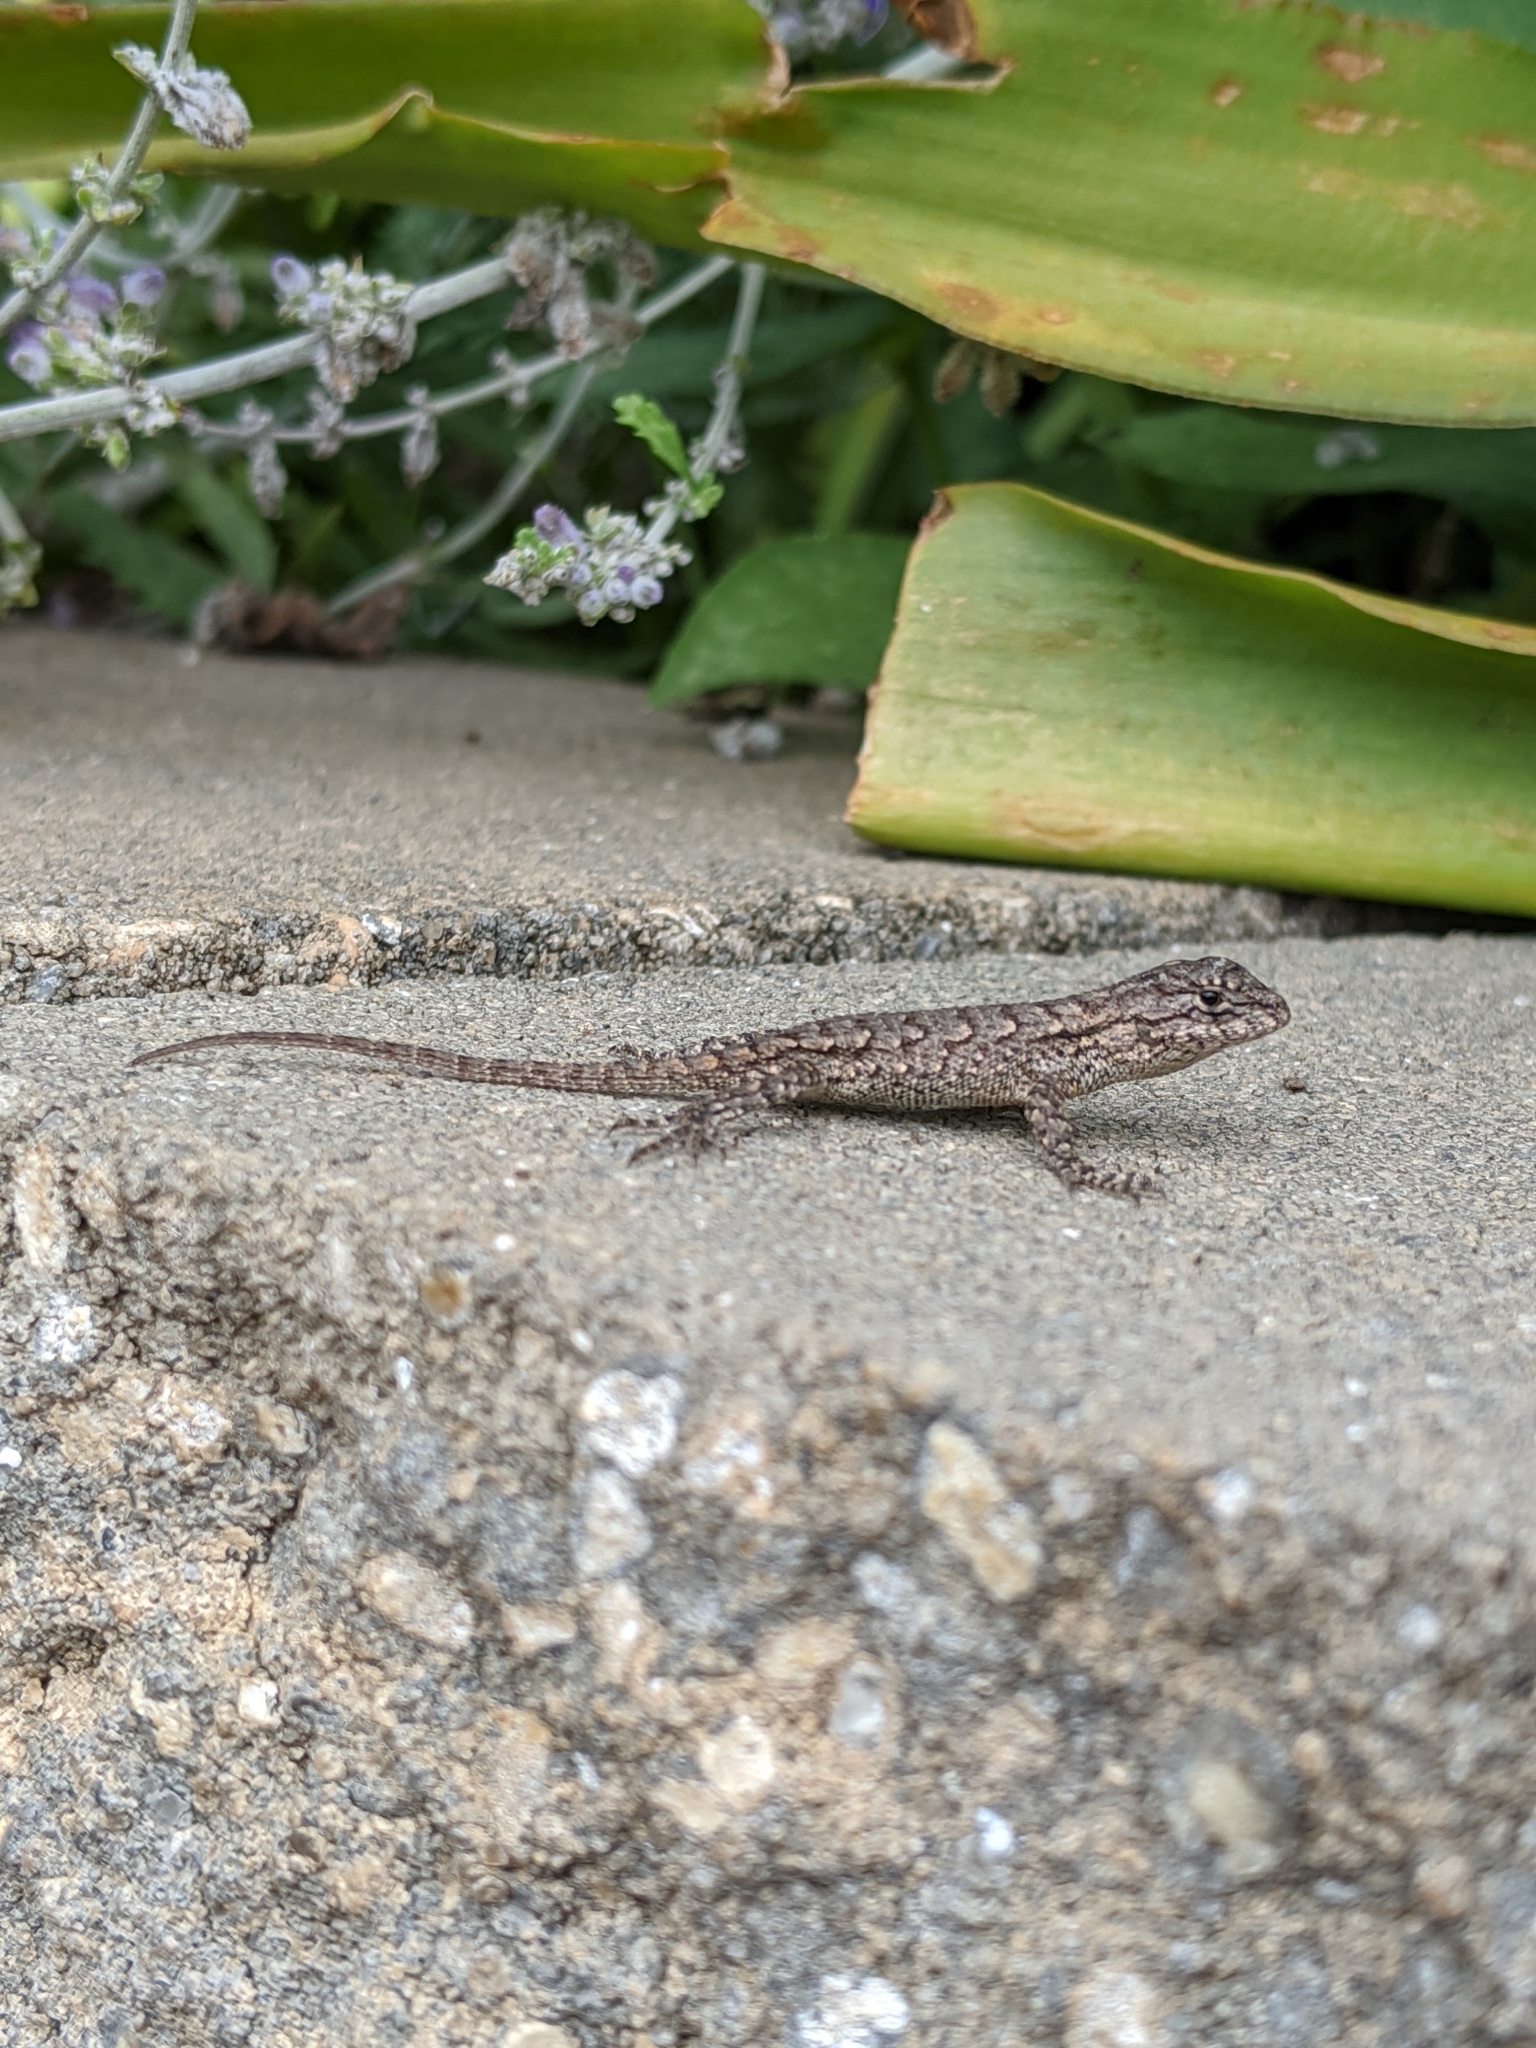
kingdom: Animalia
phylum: Chordata
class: Squamata
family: Phrynosomatidae
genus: Sceloporus
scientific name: Sceloporus undulatus
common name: Eastern fence lizard
